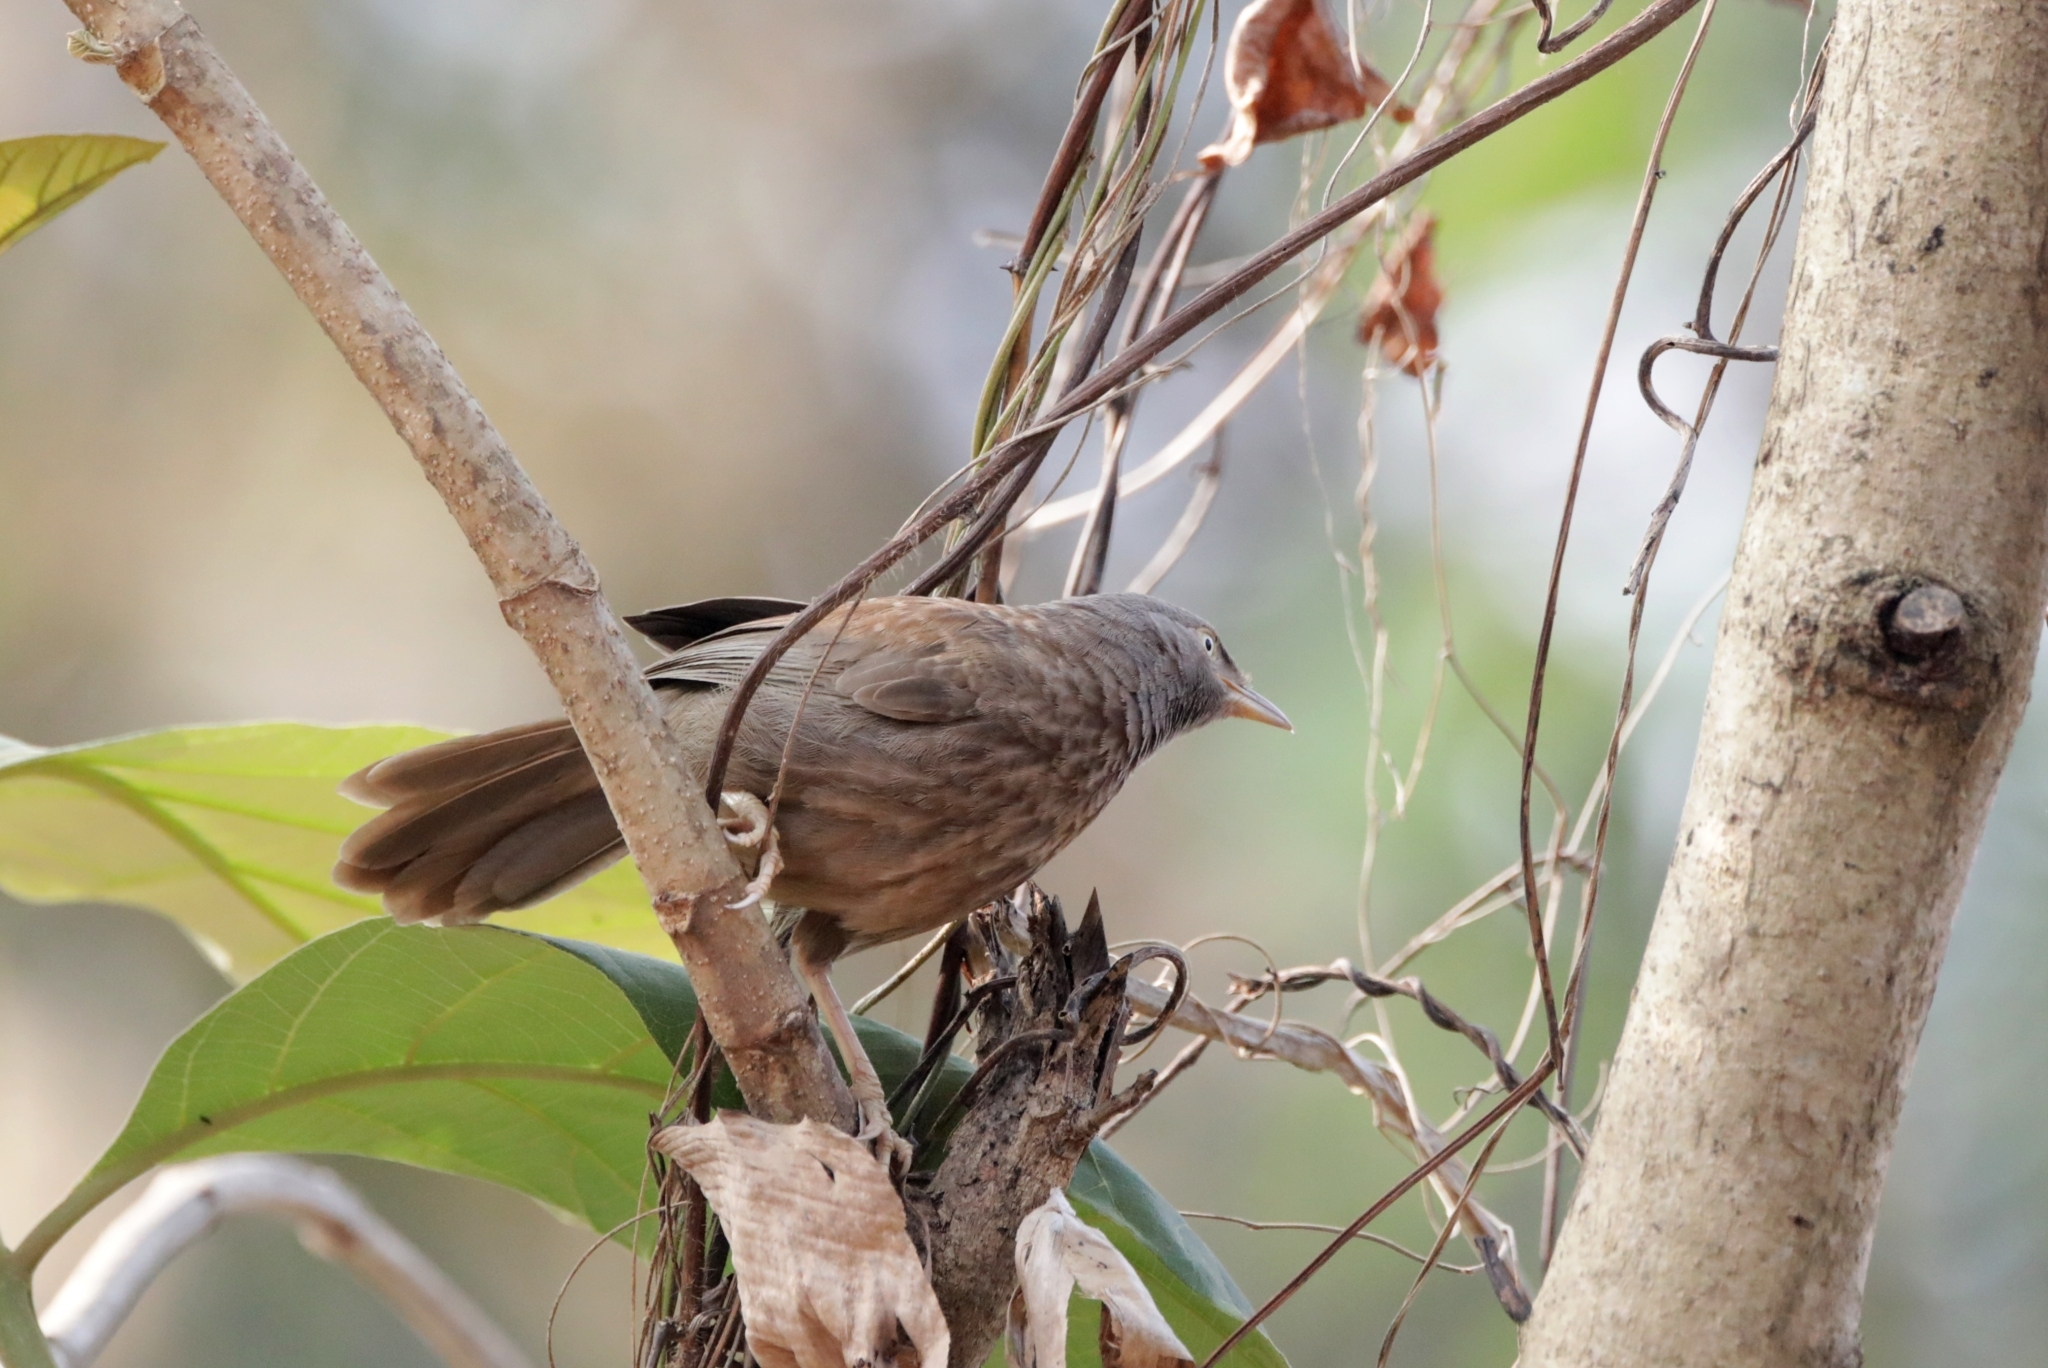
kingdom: Animalia
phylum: Chordata
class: Aves
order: Passeriformes
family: Leiothrichidae
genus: Turdoides
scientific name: Turdoides striata
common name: Jungle babbler
